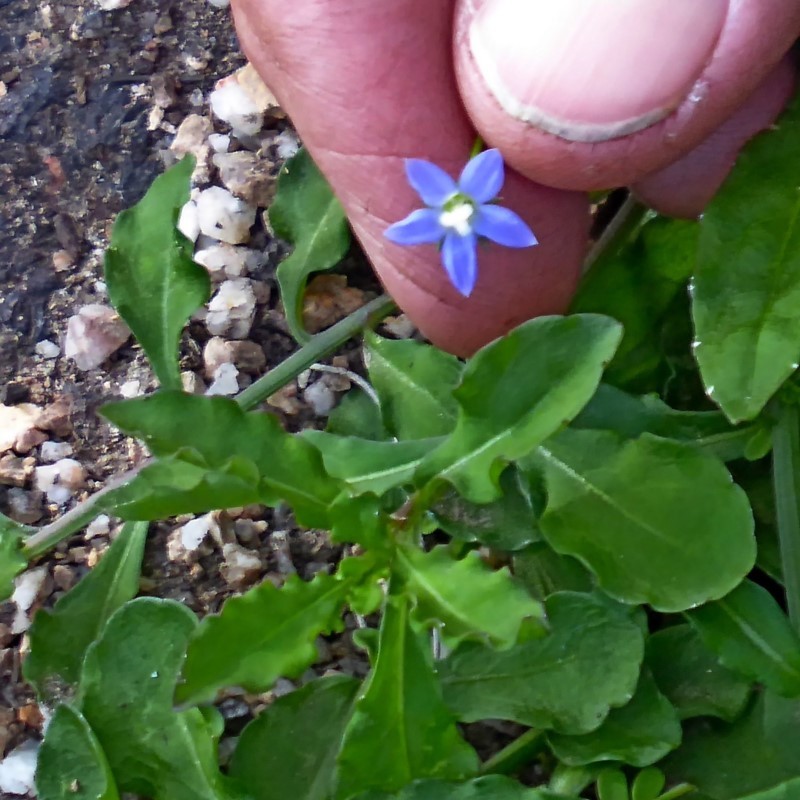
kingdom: Plantae
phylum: Tracheophyta
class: Magnoliopsida
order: Asterales
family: Campanulaceae
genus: Wahlenbergia
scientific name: Wahlenbergia gracilis
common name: Harebell
